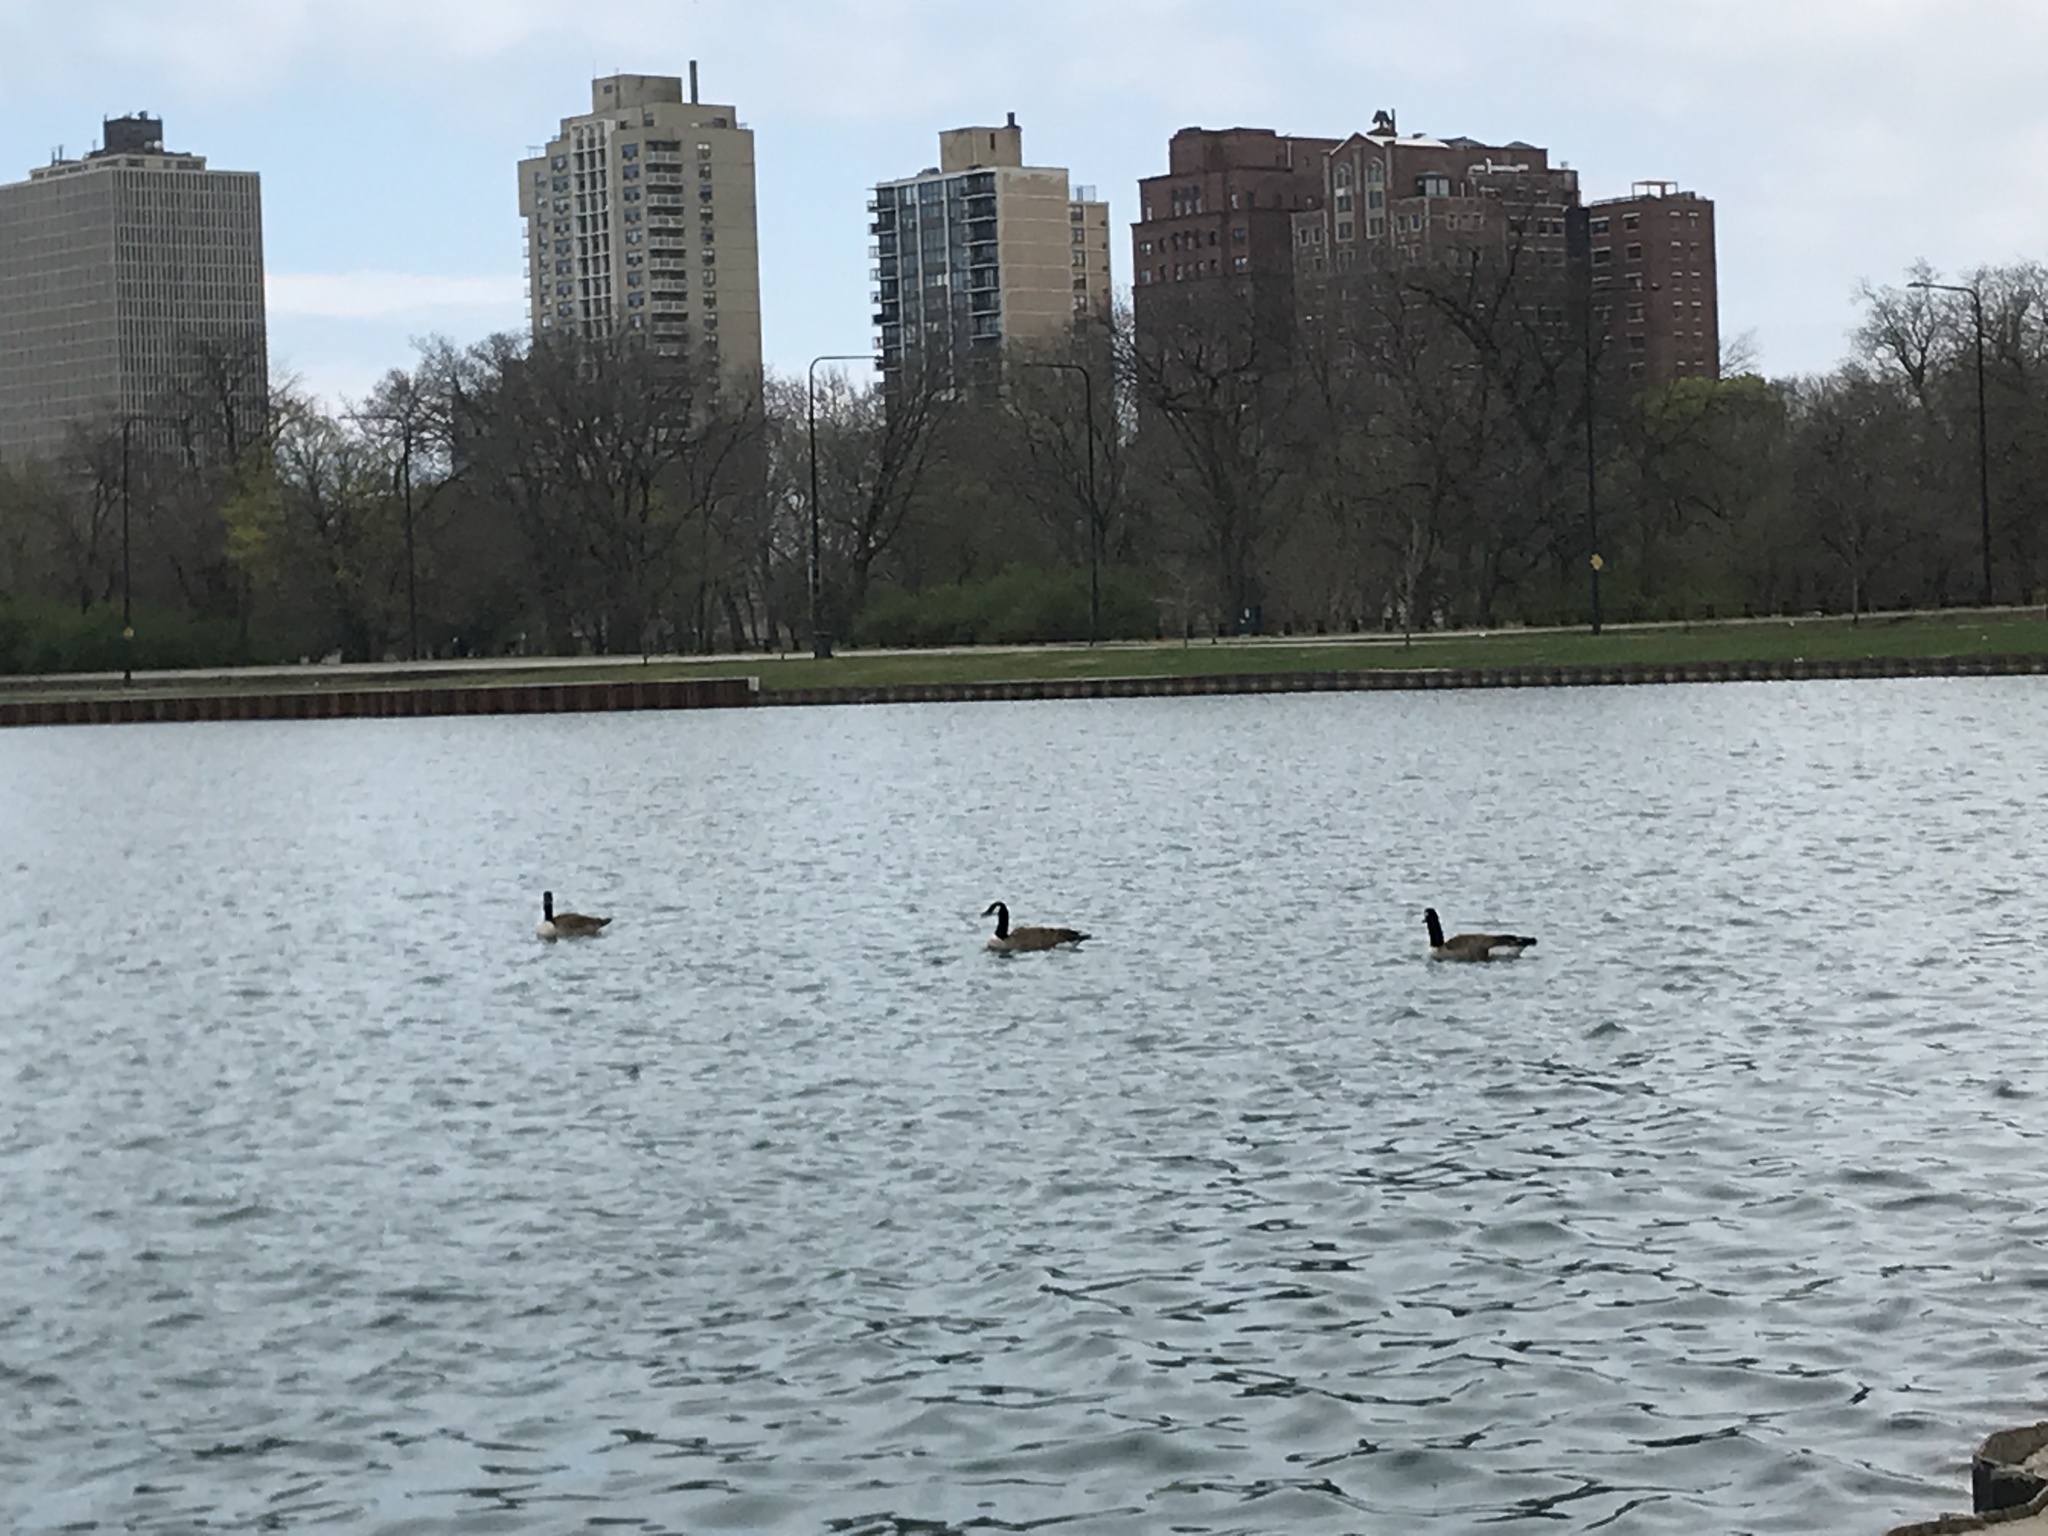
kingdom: Animalia
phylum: Chordata
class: Aves
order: Anseriformes
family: Anatidae
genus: Branta
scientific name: Branta canadensis
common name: Canada goose
